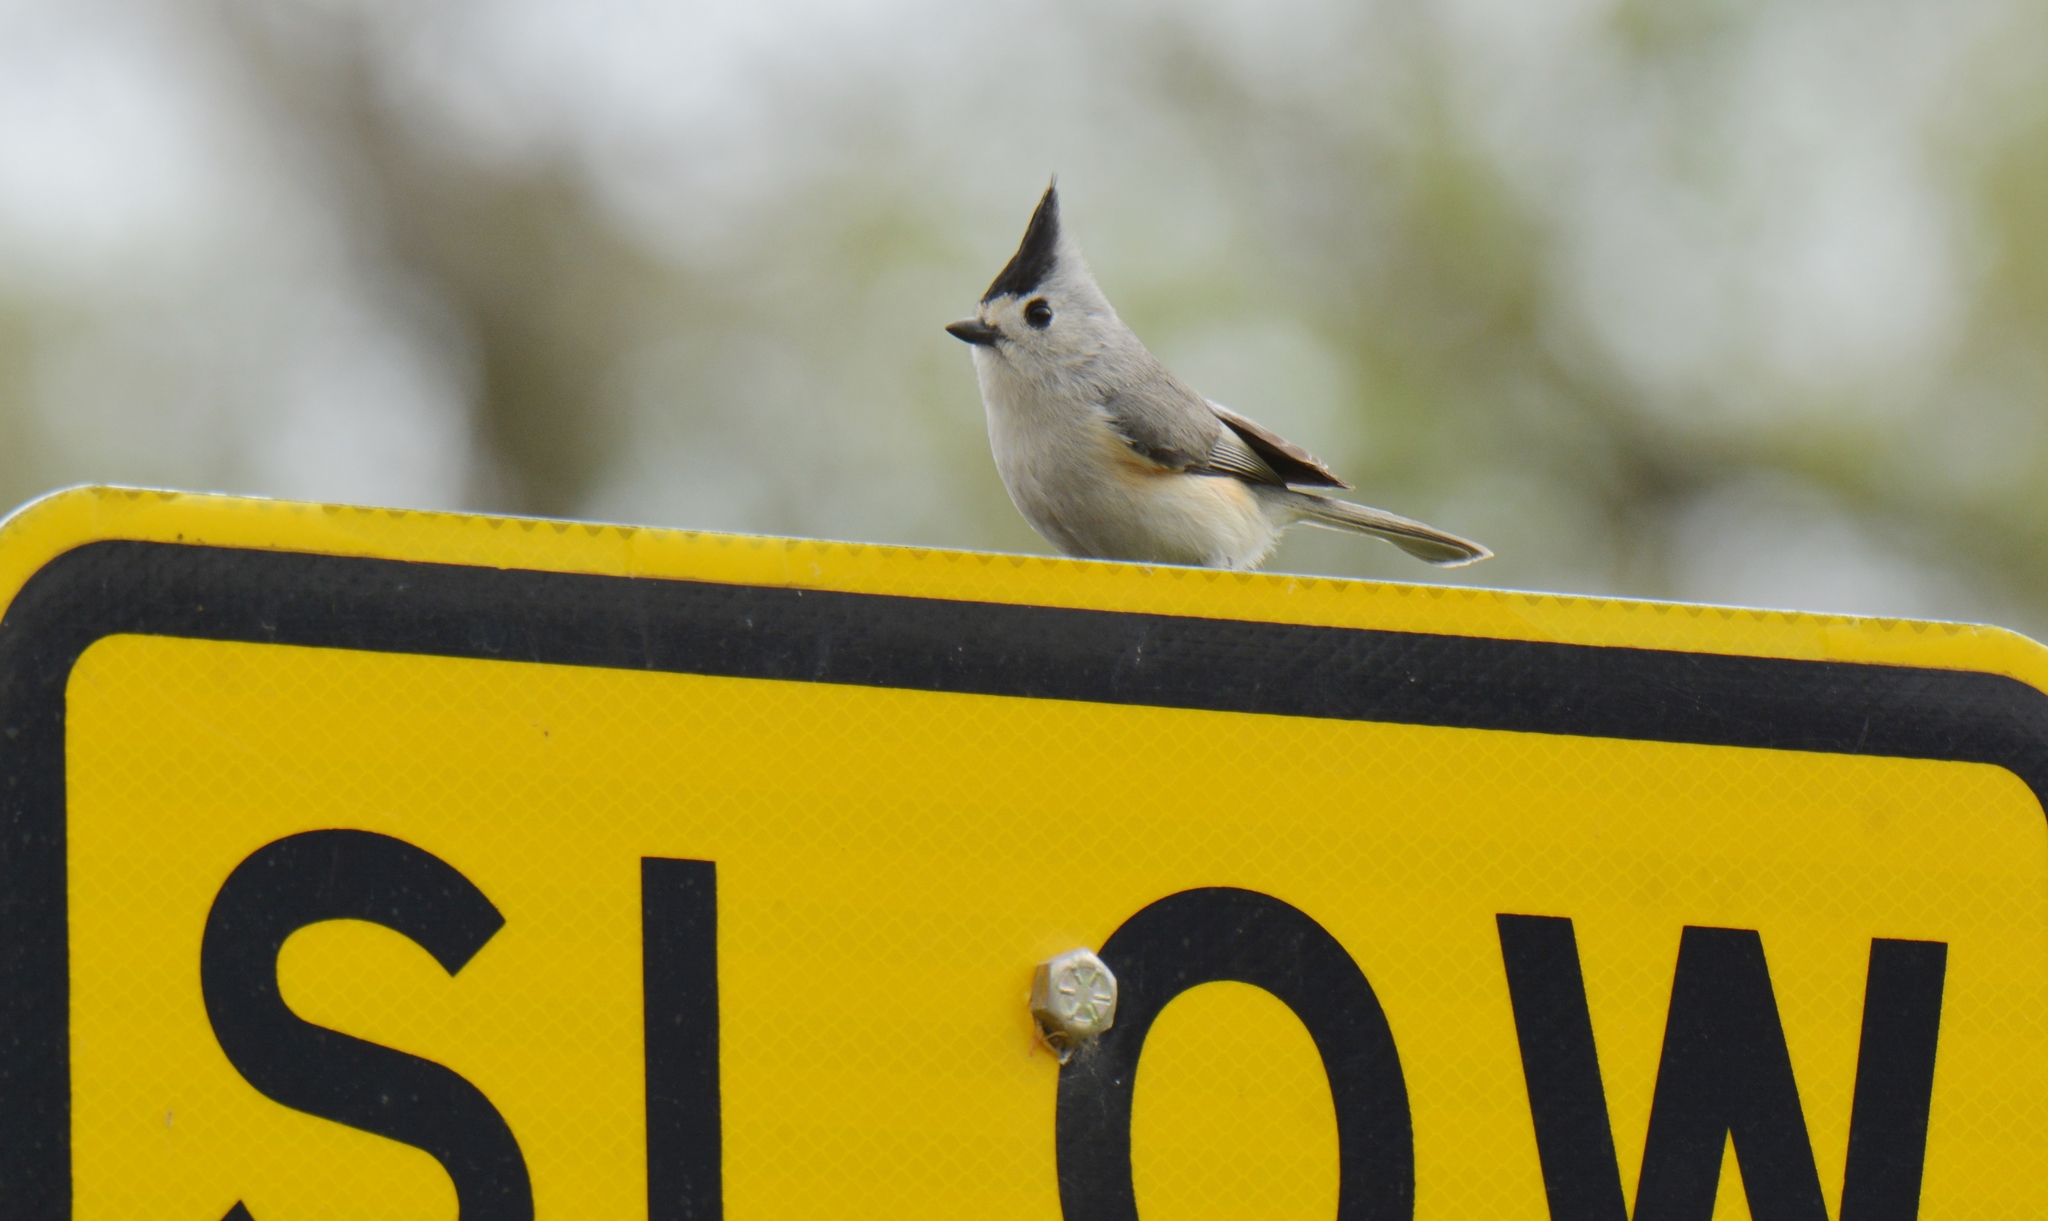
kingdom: Animalia
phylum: Chordata
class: Aves
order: Passeriformes
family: Paridae
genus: Baeolophus
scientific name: Baeolophus atricristatus
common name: Black-crested titmouse
